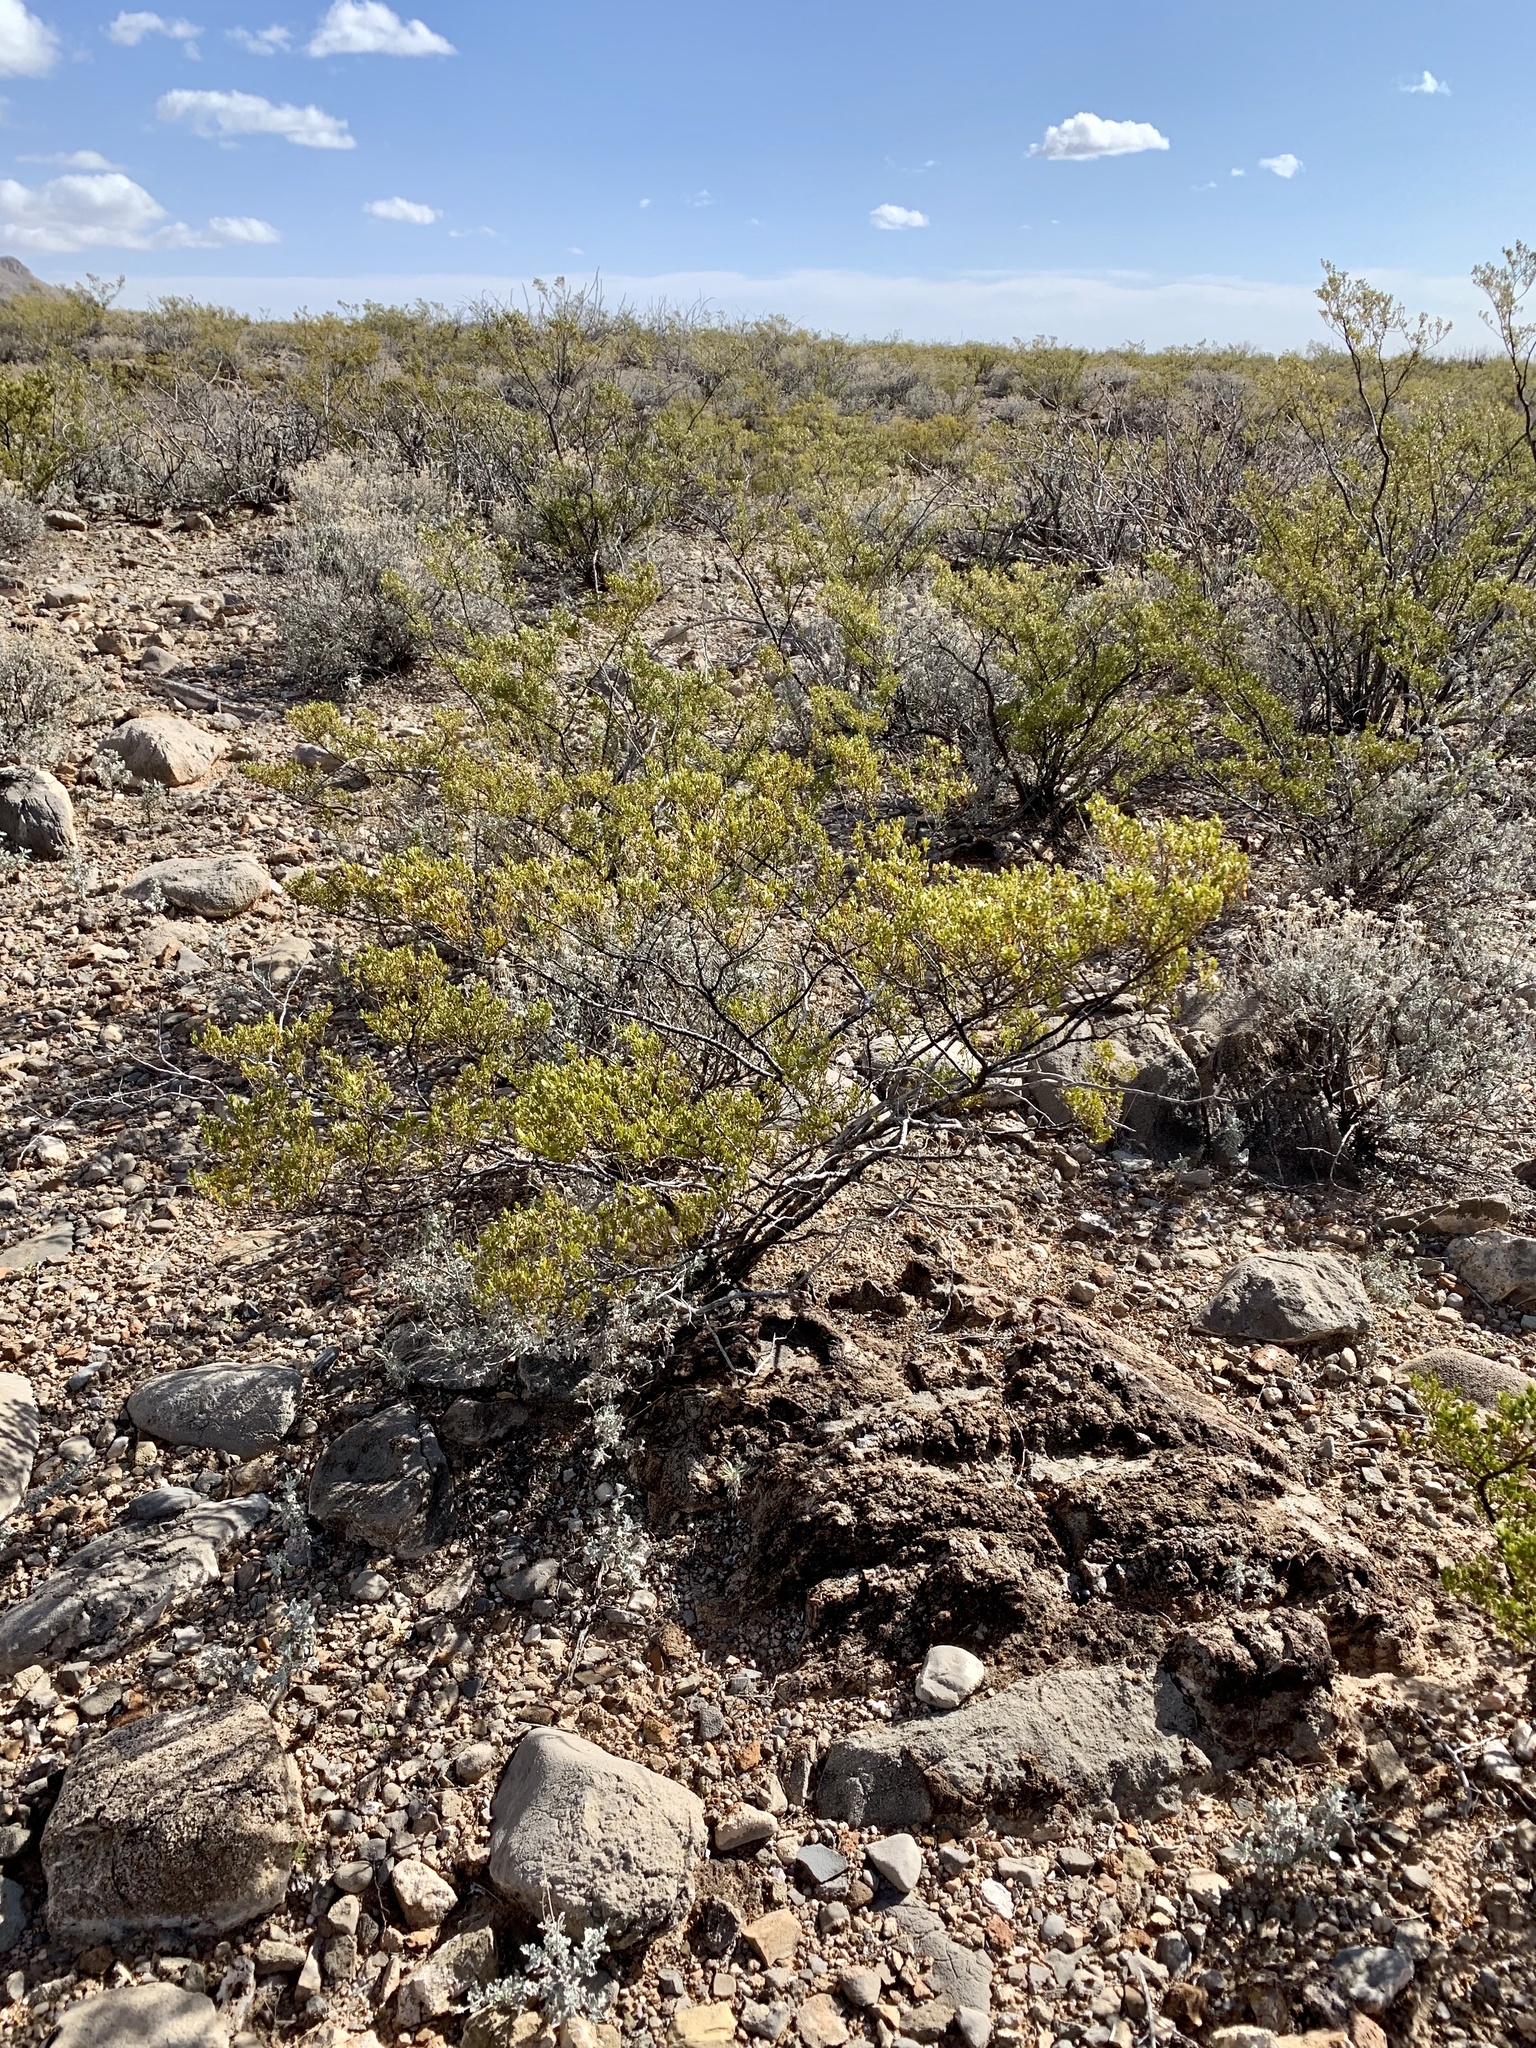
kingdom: Plantae
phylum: Tracheophyta
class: Magnoliopsida
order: Zygophyllales
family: Zygophyllaceae
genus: Larrea
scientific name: Larrea tridentata
